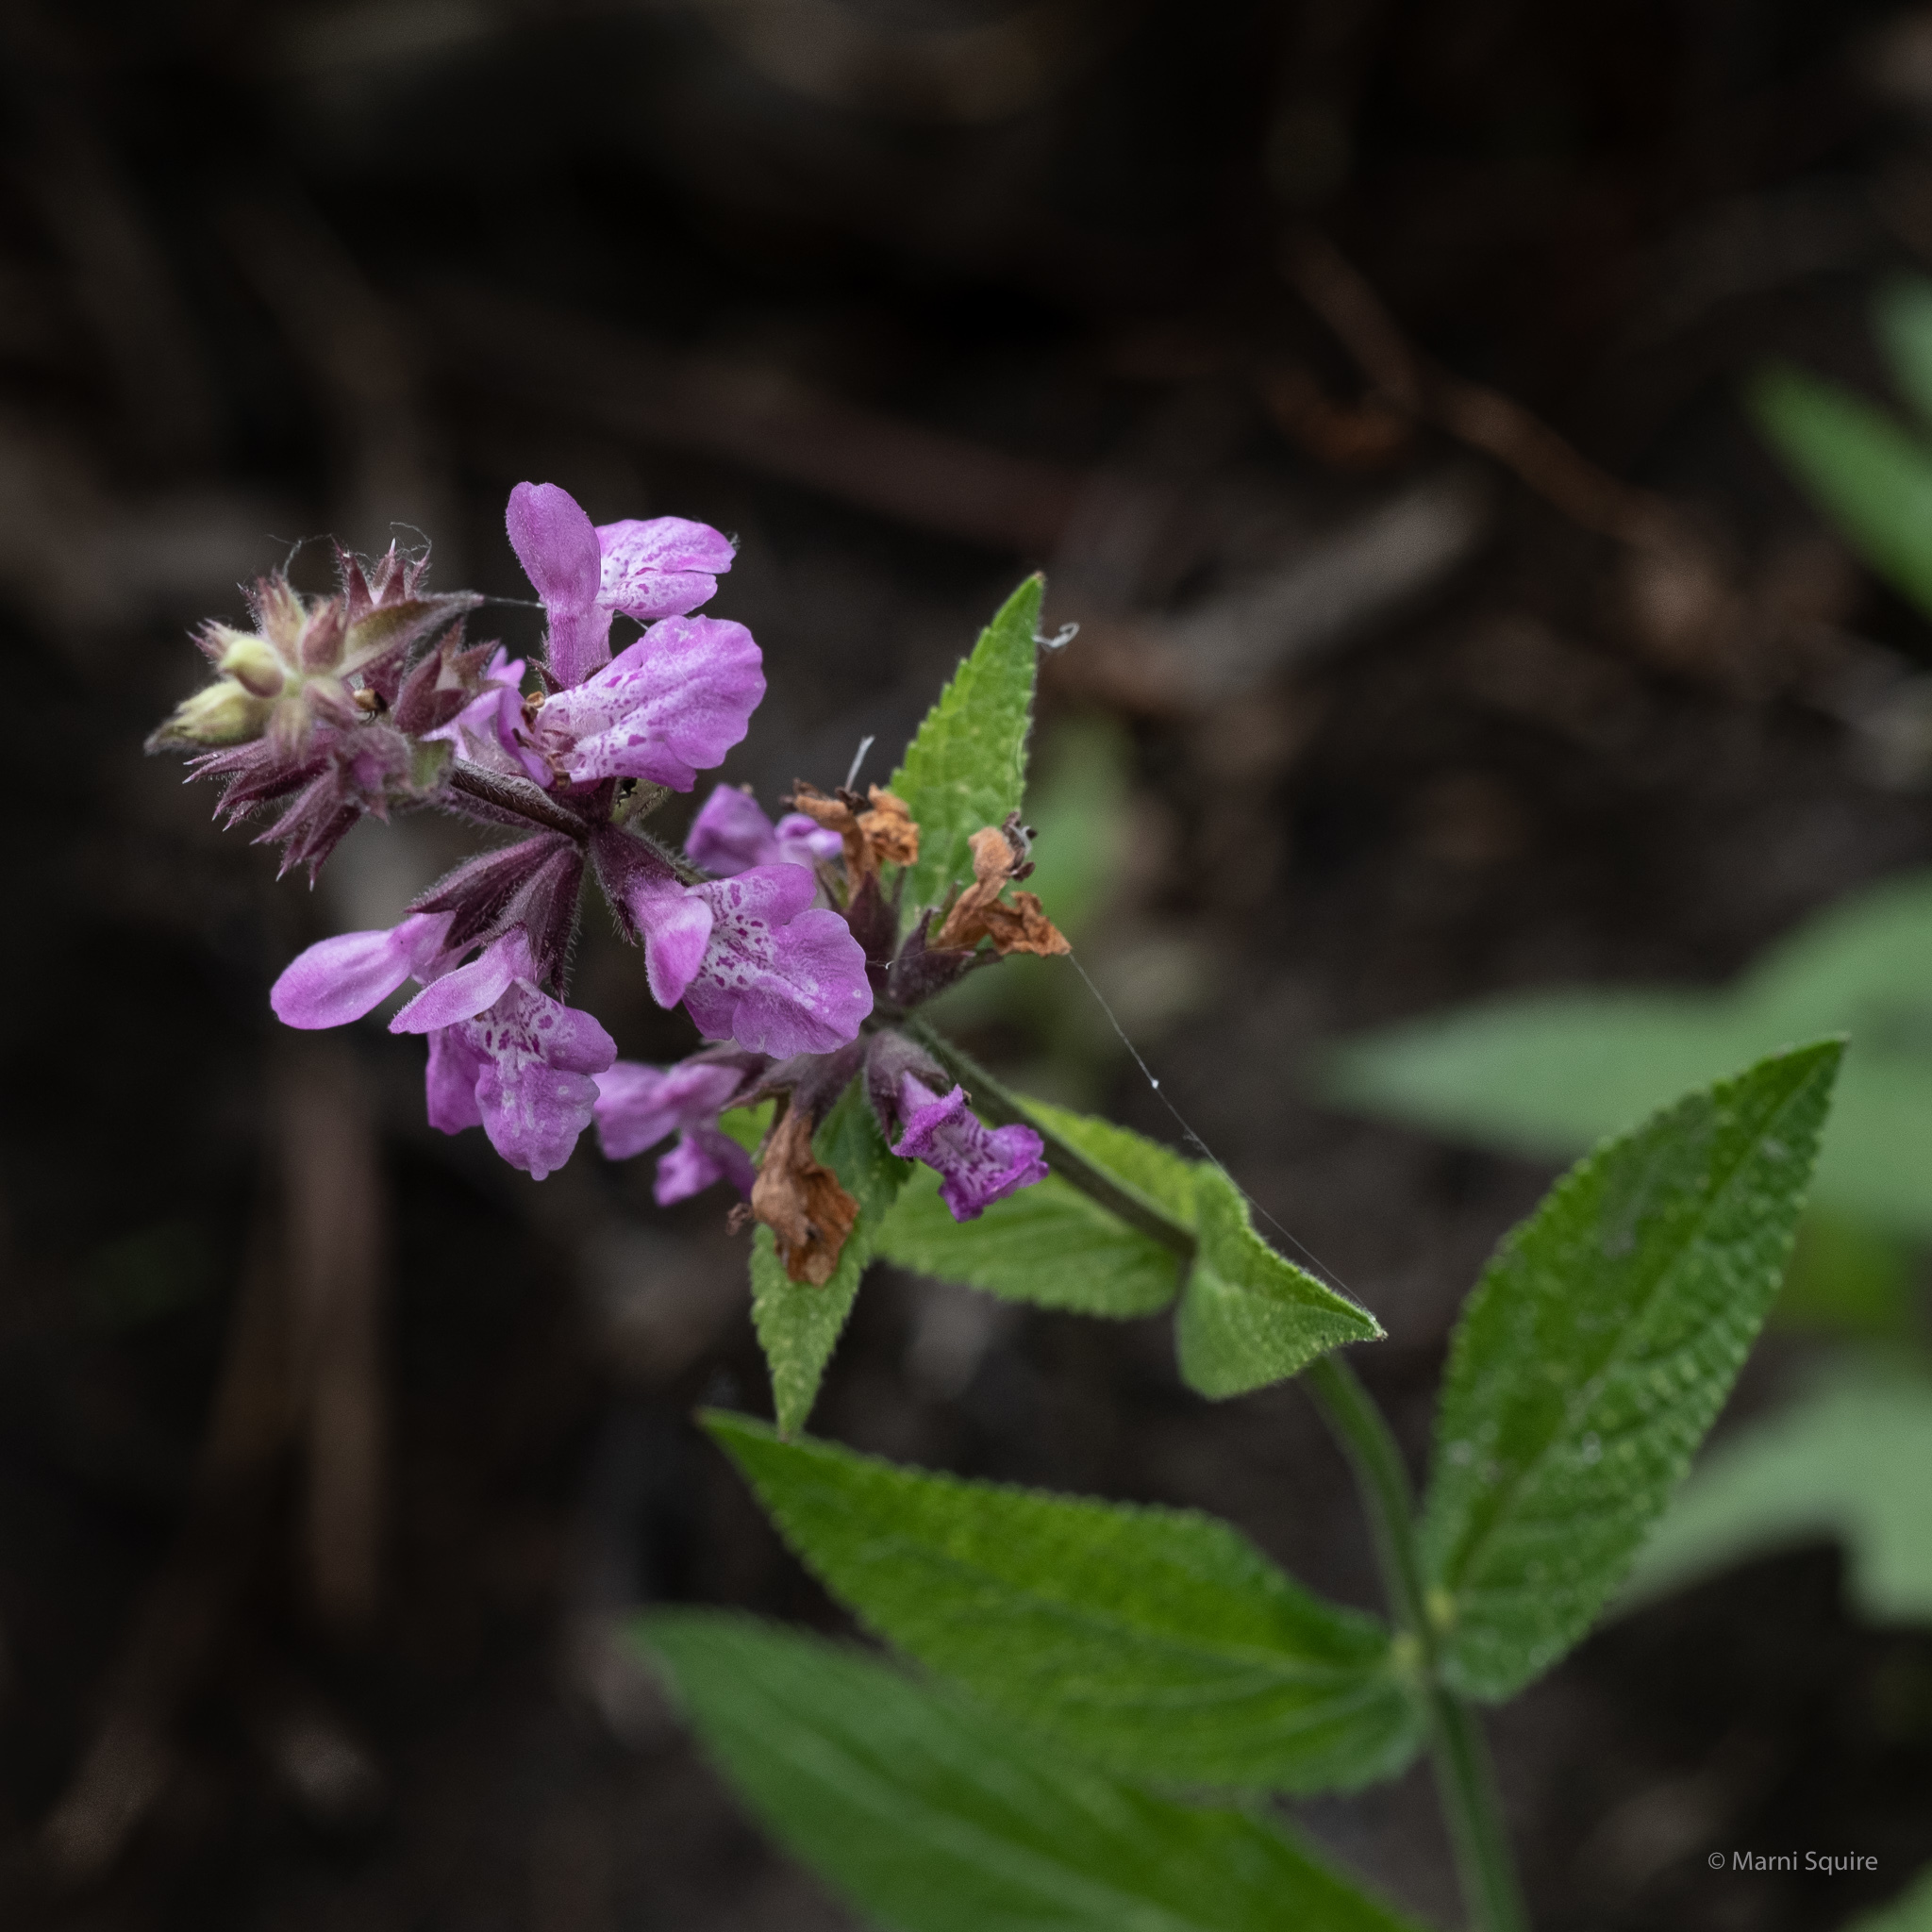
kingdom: Plantae
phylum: Tracheophyta
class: Magnoliopsida
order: Lamiales
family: Lamiaceae
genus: Stachys
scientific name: Stachys palustris
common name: Marsh woundwort
